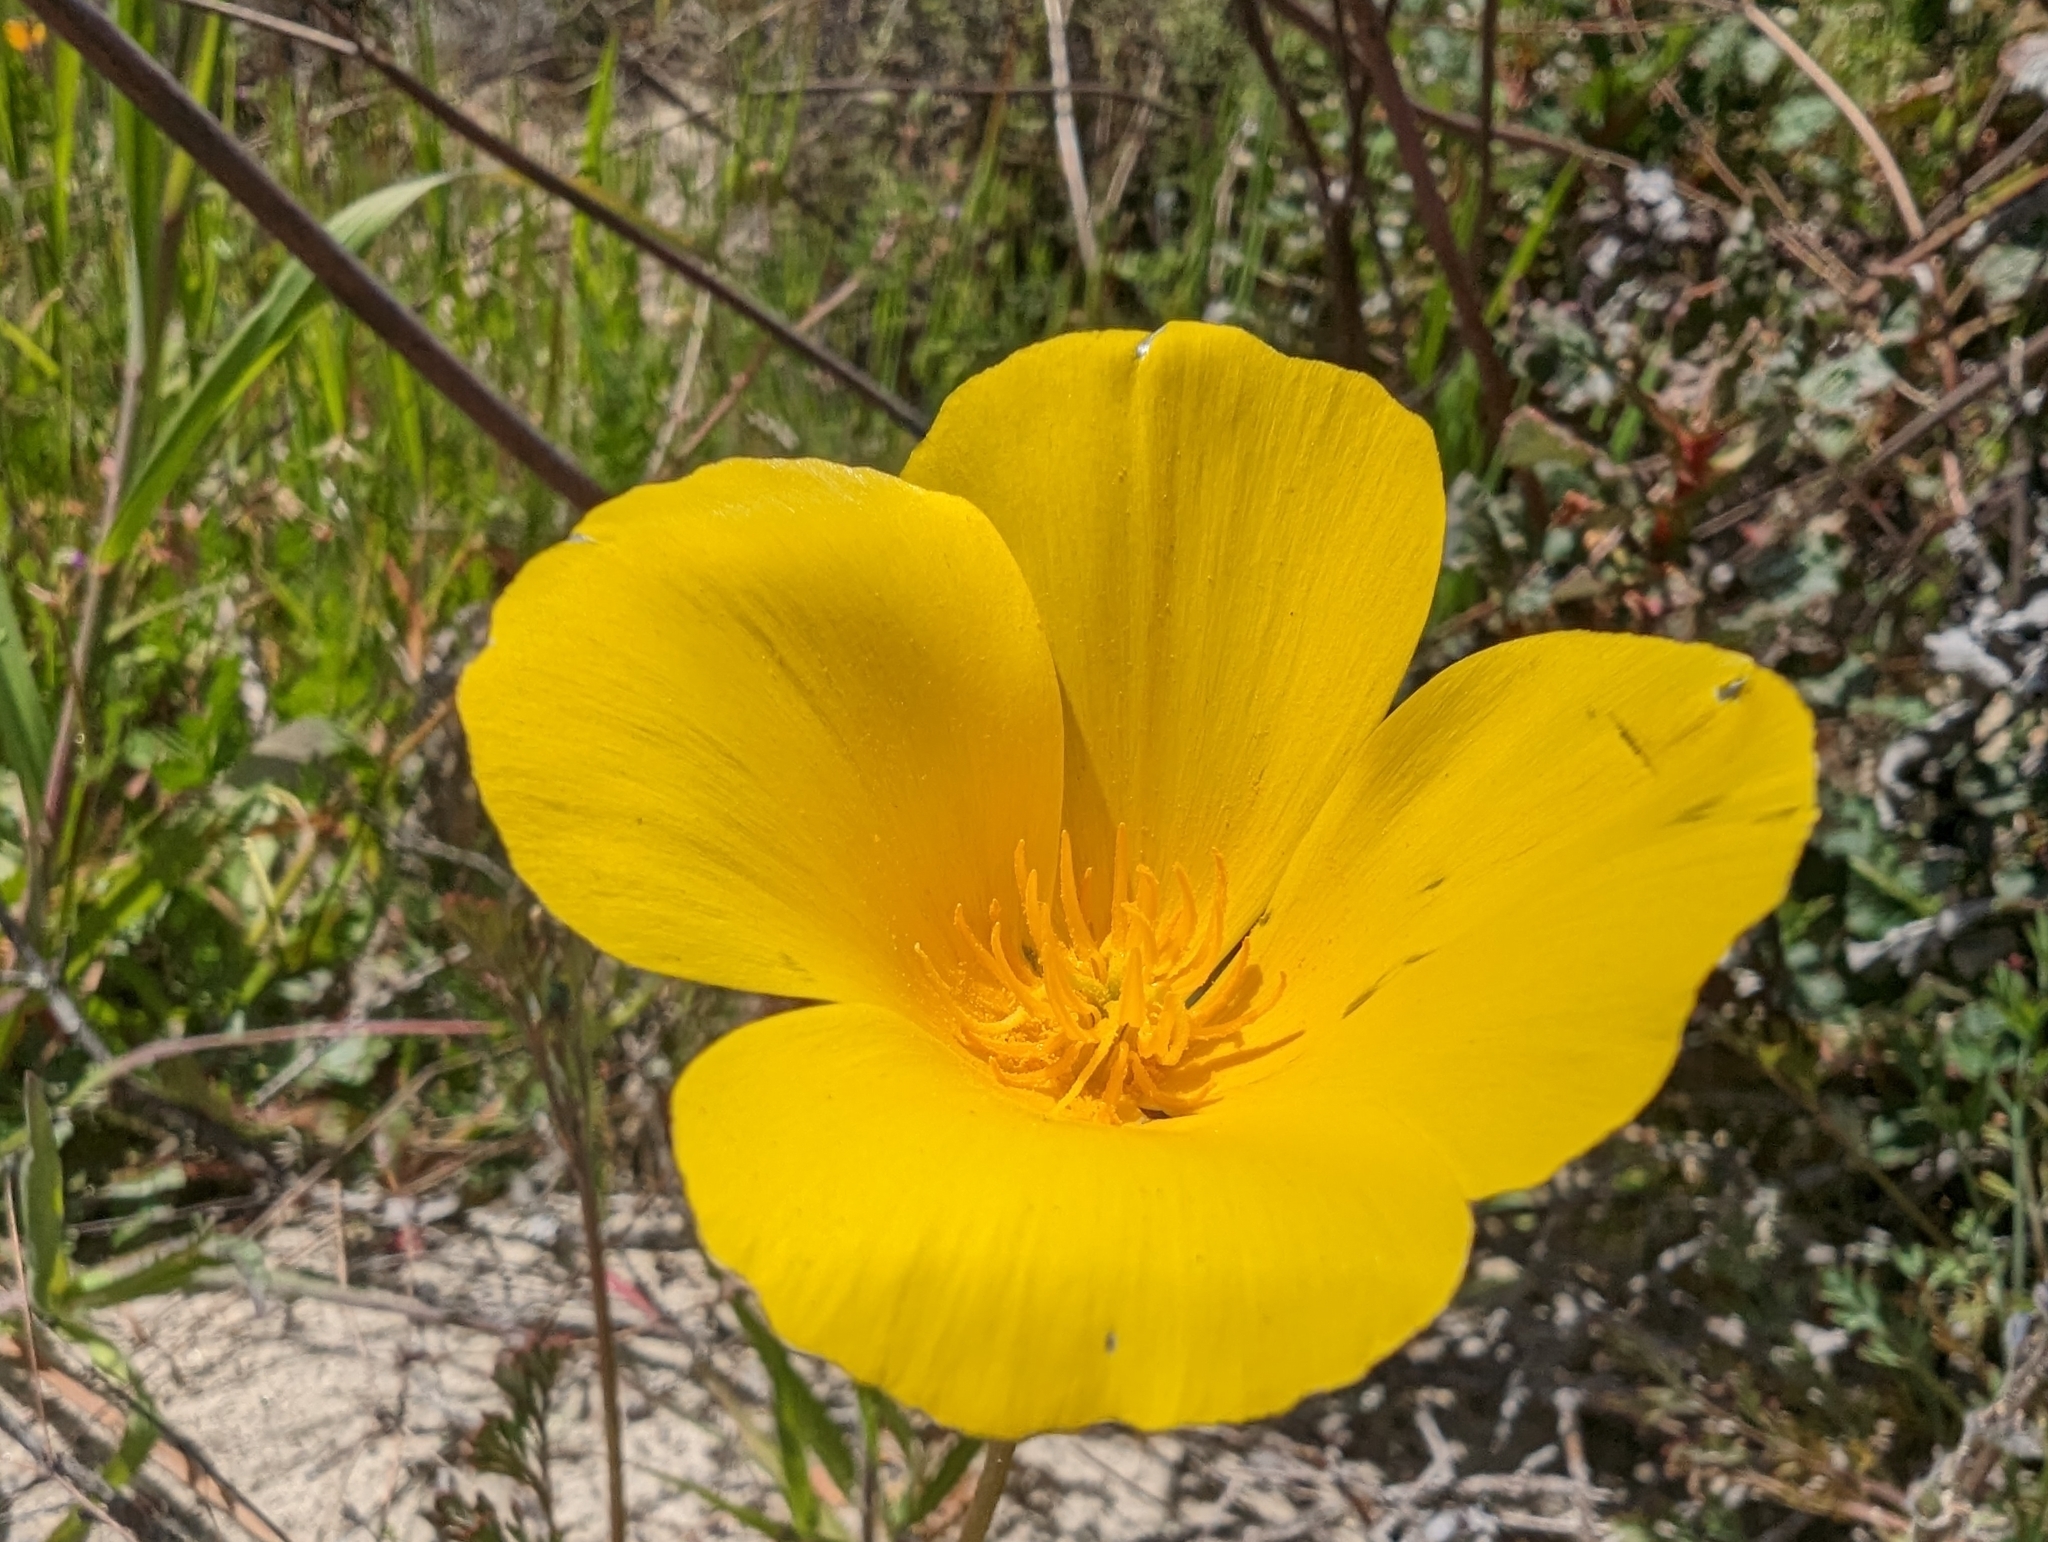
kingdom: Plantae
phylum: Tracheophyta
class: Magnoliopsida
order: Ranunculales
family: Papaveraceae
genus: Eschscholzia
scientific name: Eschscholzia californica
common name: California poppy
